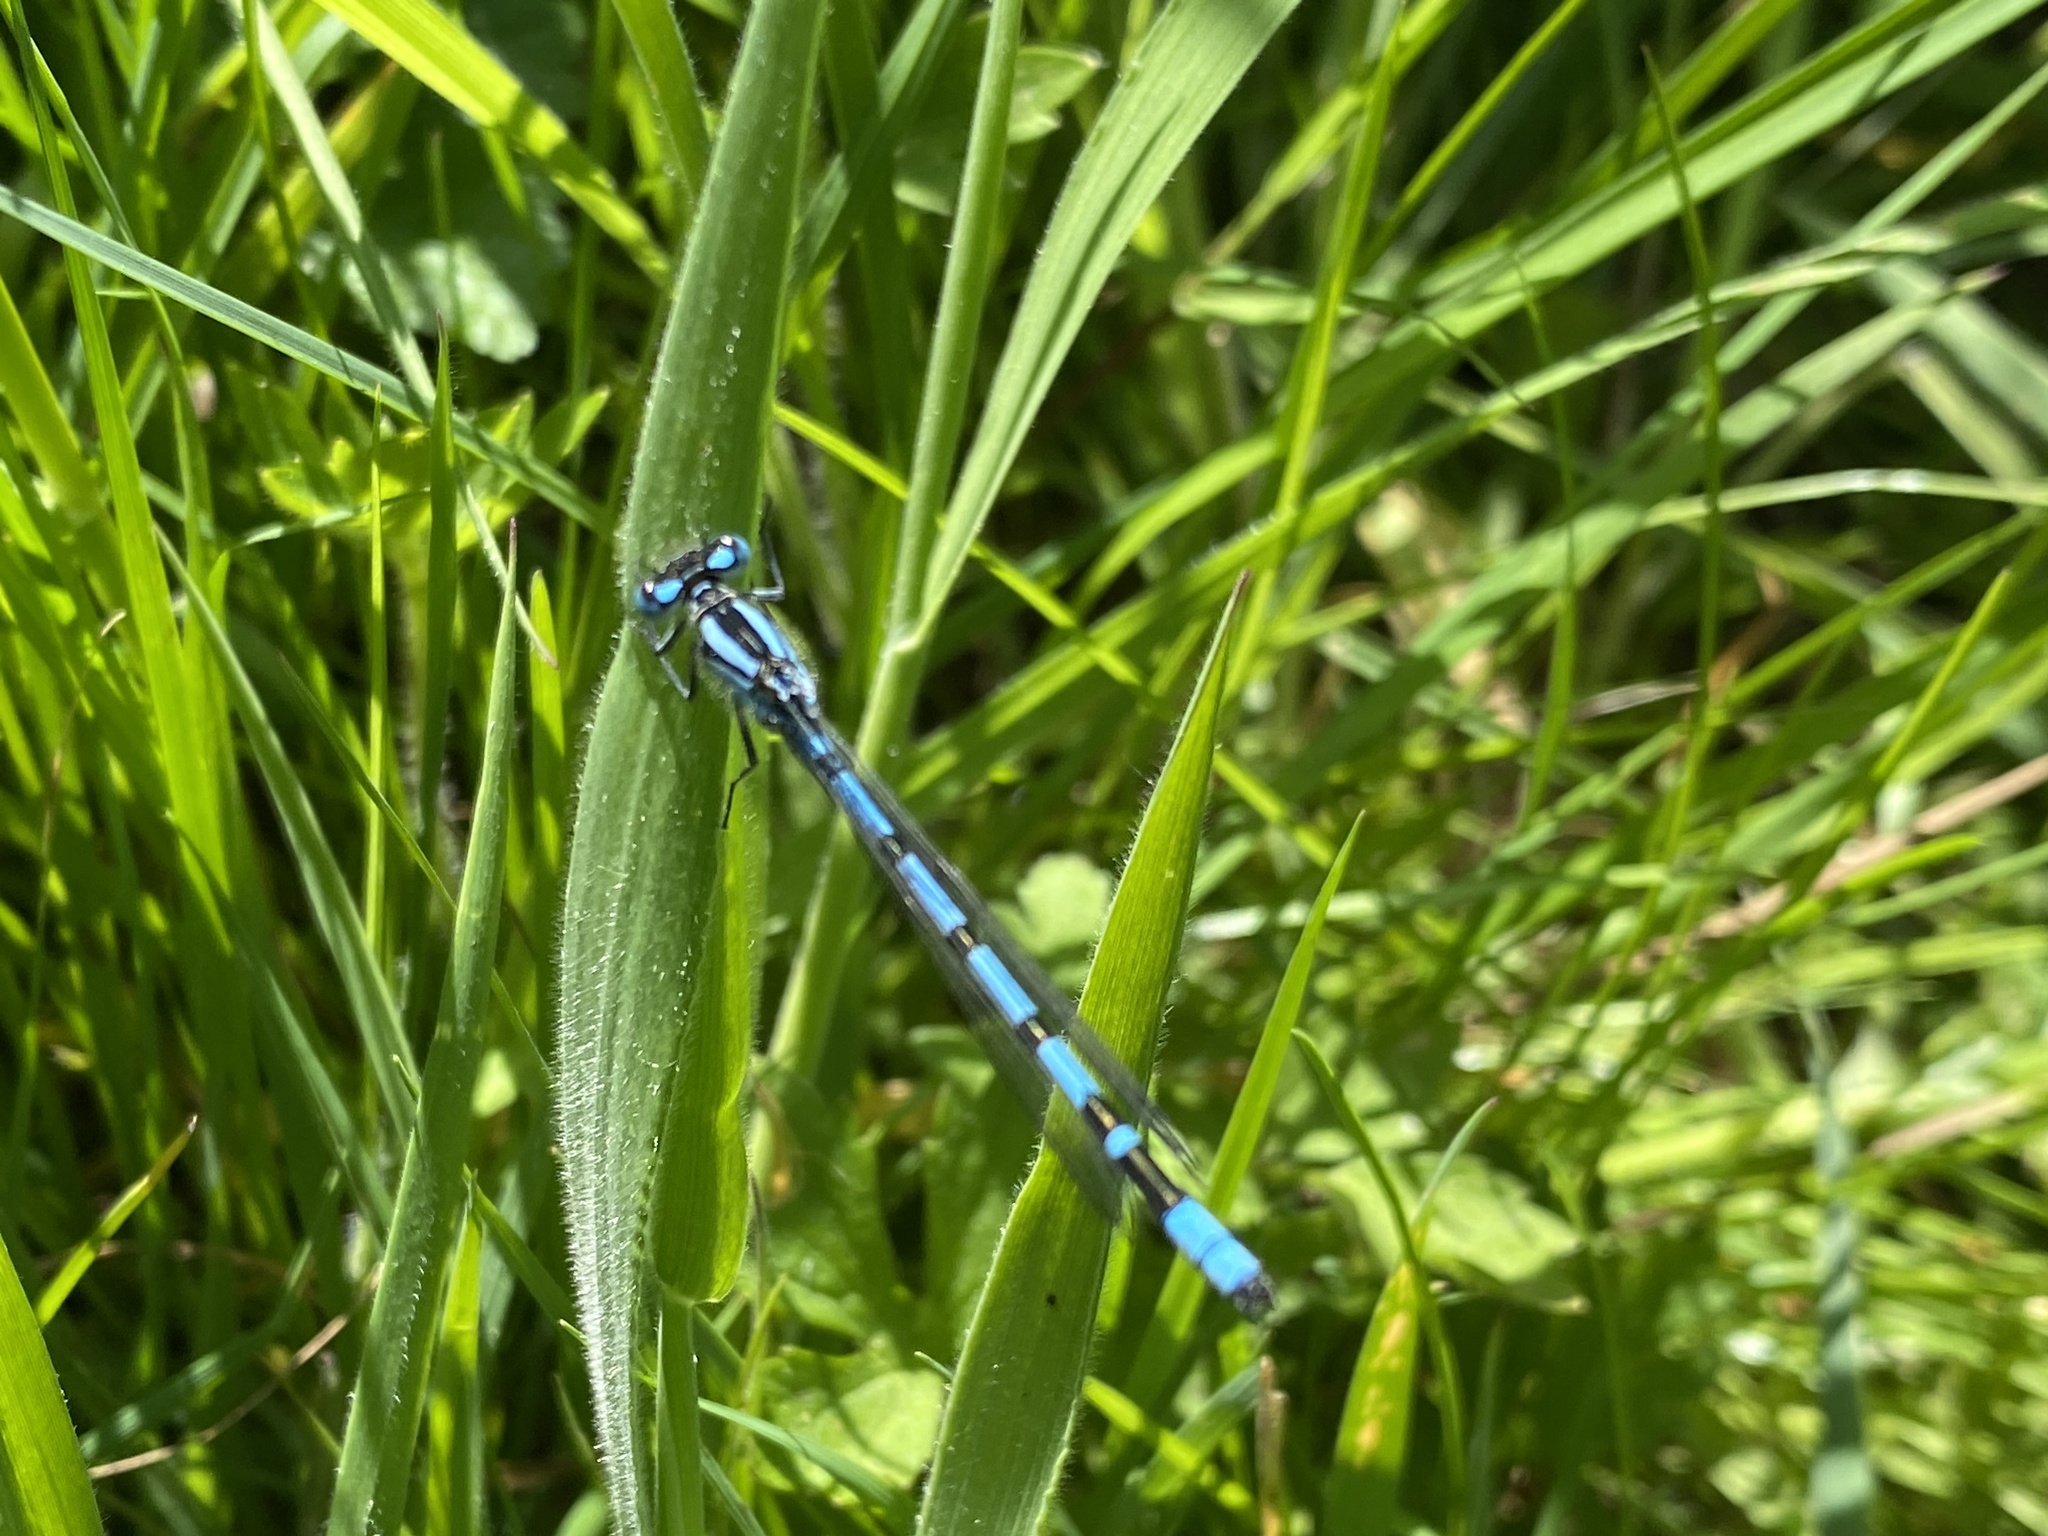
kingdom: Animalia
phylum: Arthropoda
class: Insecta
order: Odonata
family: Coenagrionidae
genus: Enallagma
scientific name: Enallagma cyathigerum
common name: Common blue damselfly
